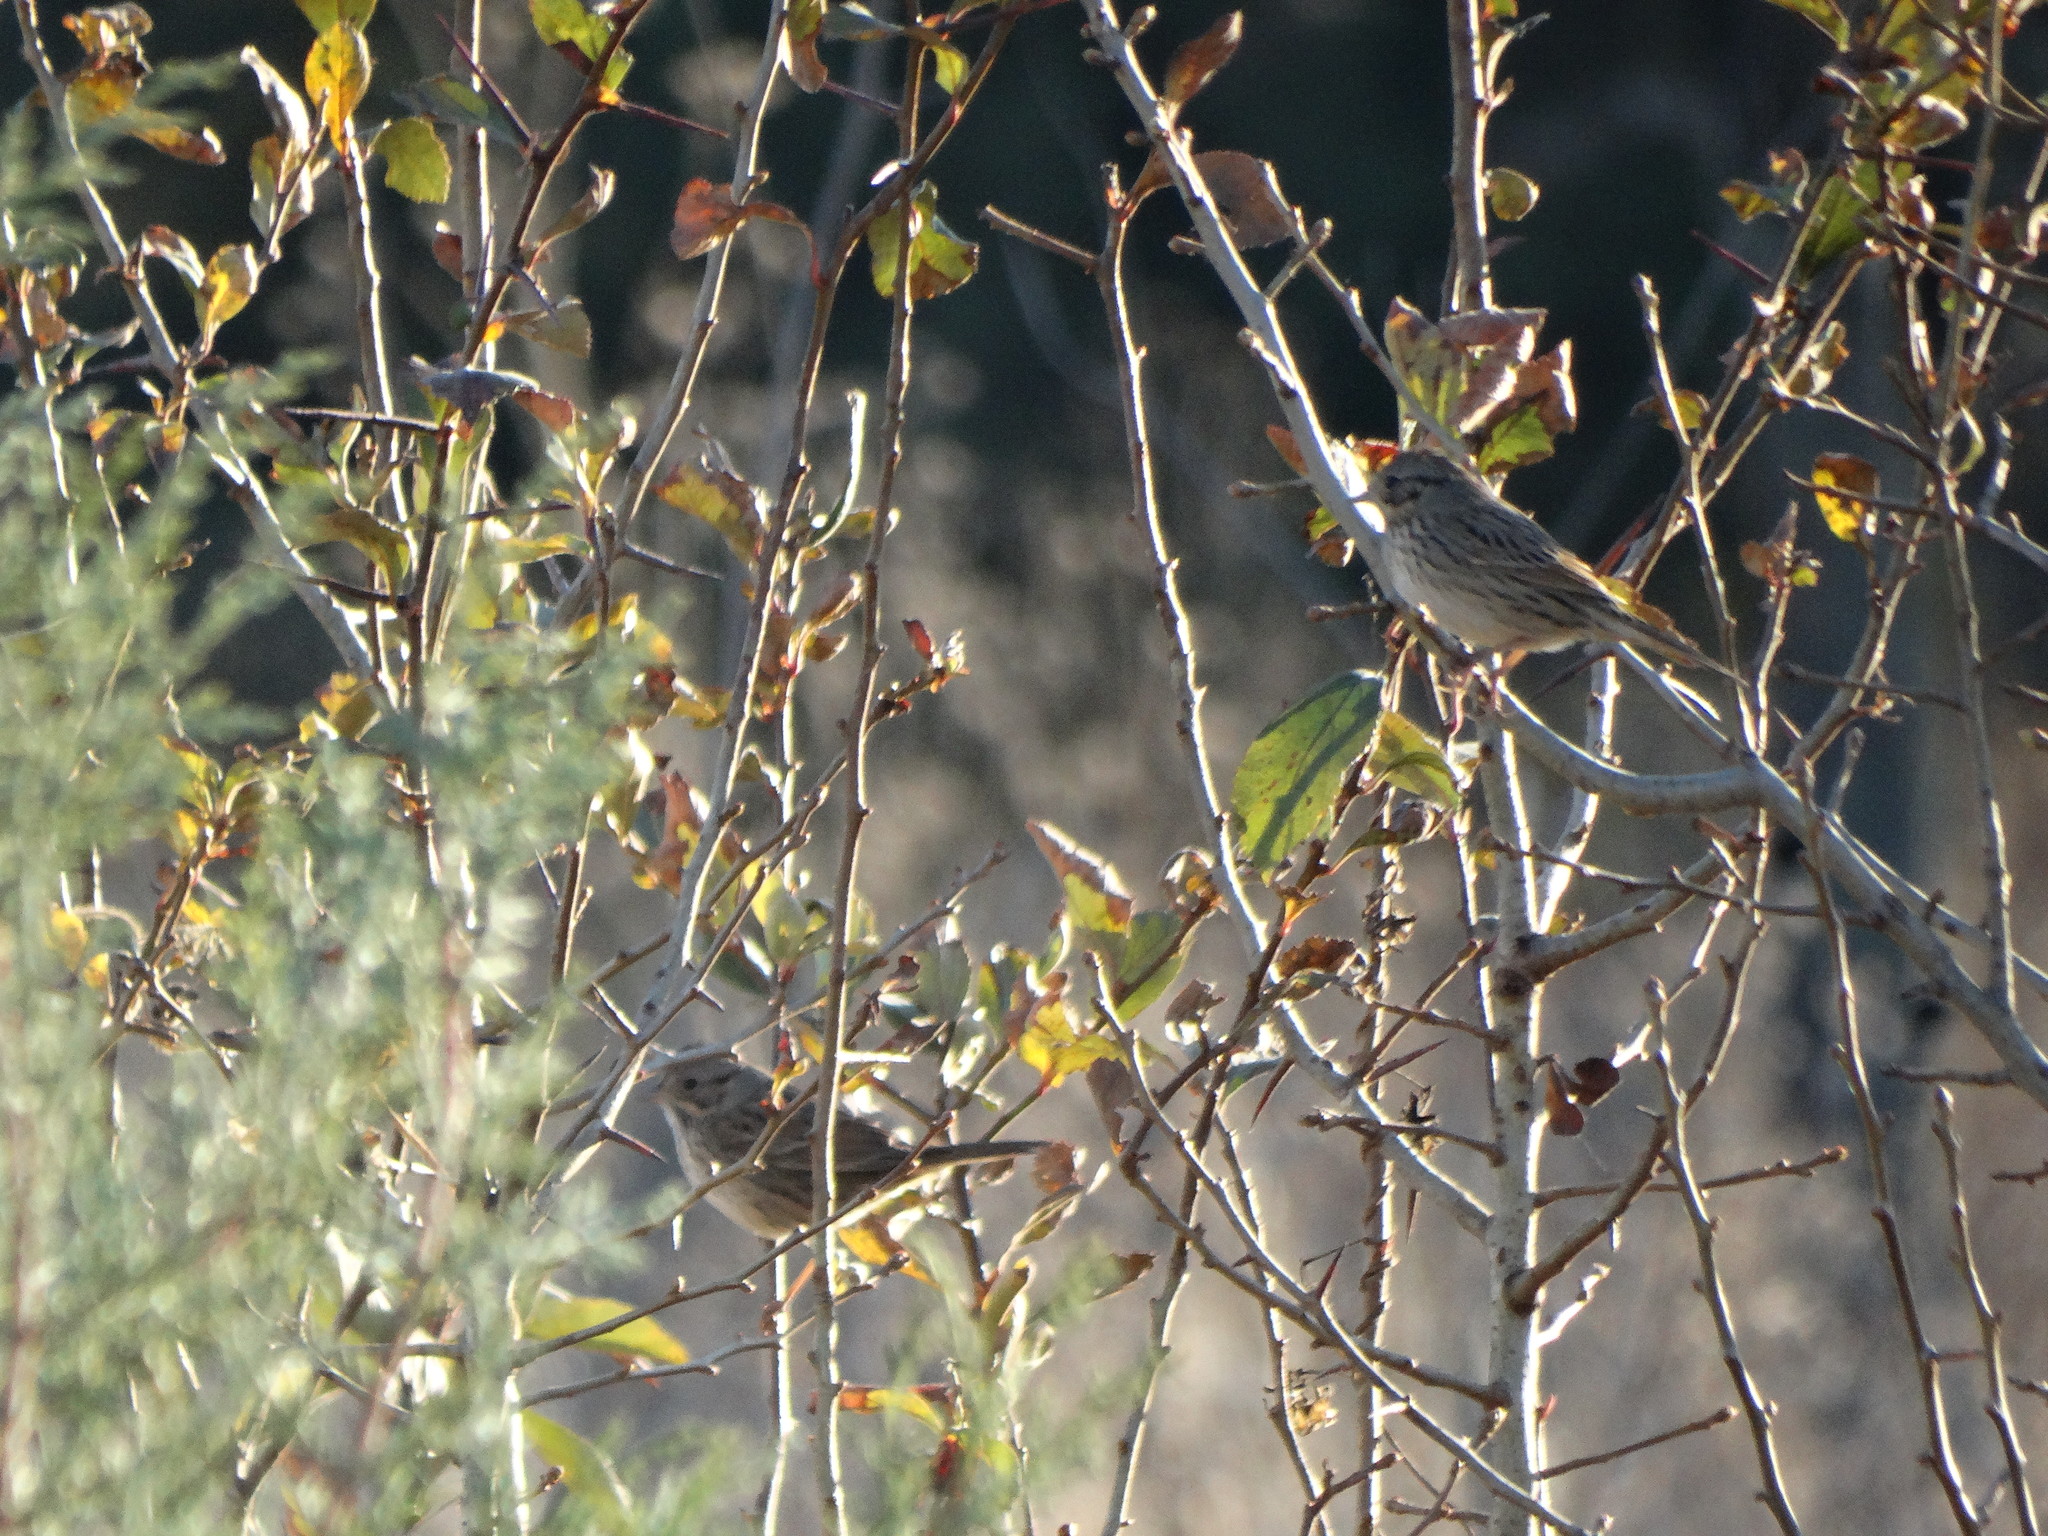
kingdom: Animalia
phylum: Chordata
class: Aves
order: Passeriformes
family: Passerellidae
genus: Melospiza
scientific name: Melospiza lincolnii
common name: Lincoln's sparrow
